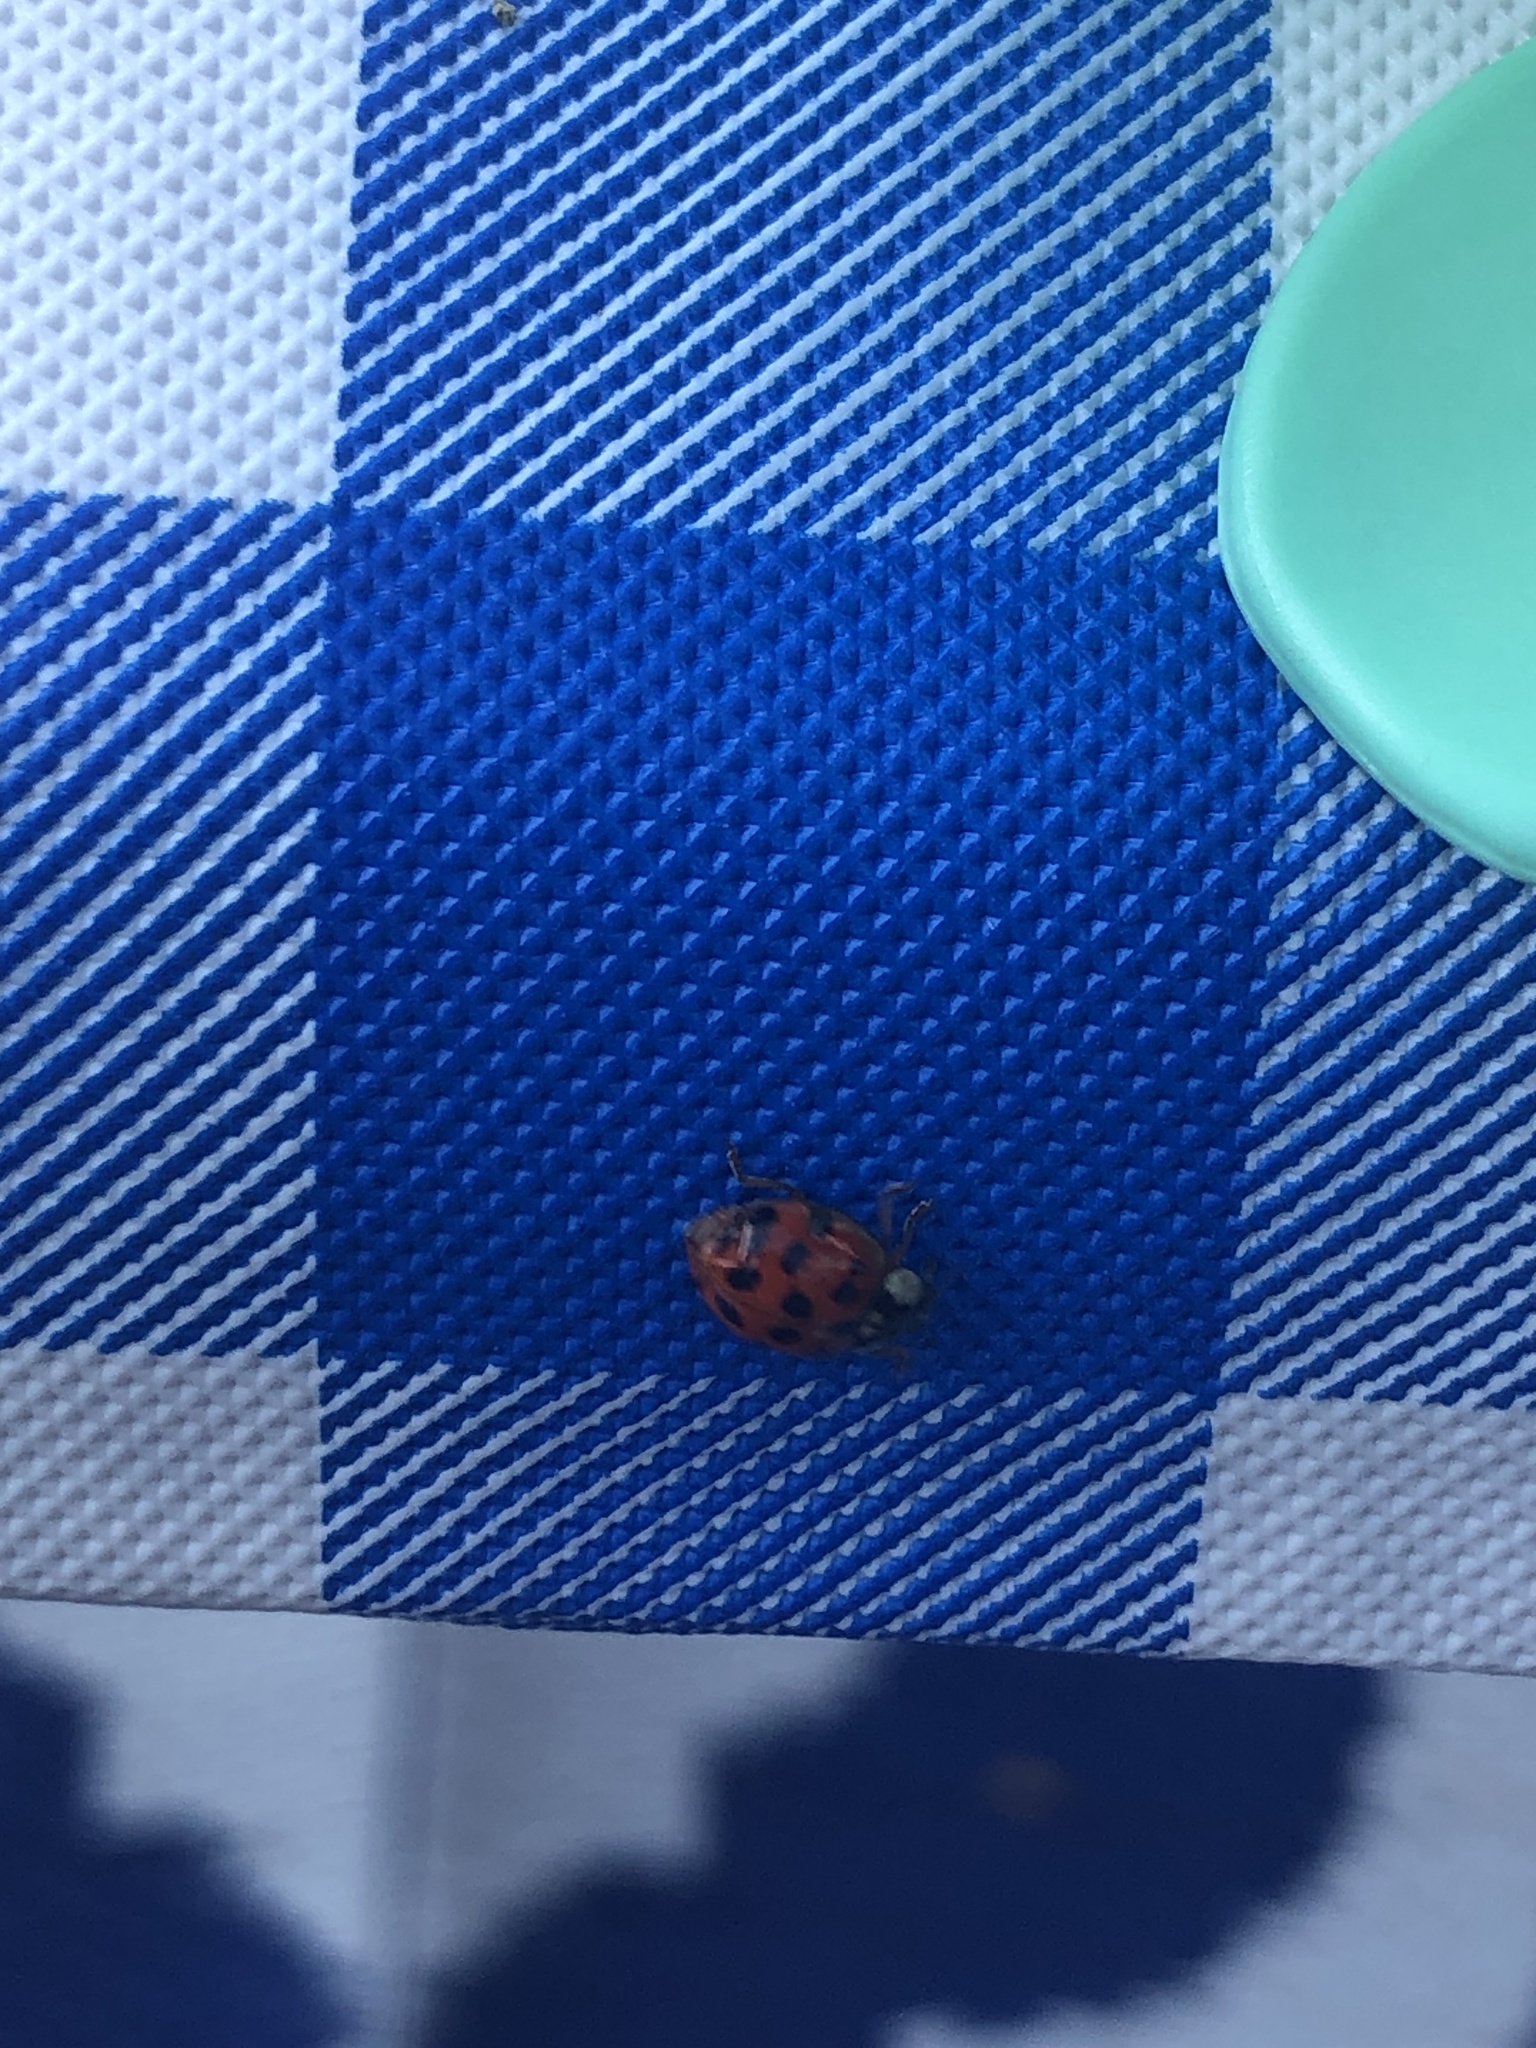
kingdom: Animalia
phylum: Arthropoda
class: Insecta
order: Coleoptera
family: Coccinellidae
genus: Harmonia
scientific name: Harmonia axyridis
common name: Harlequin ladybird
